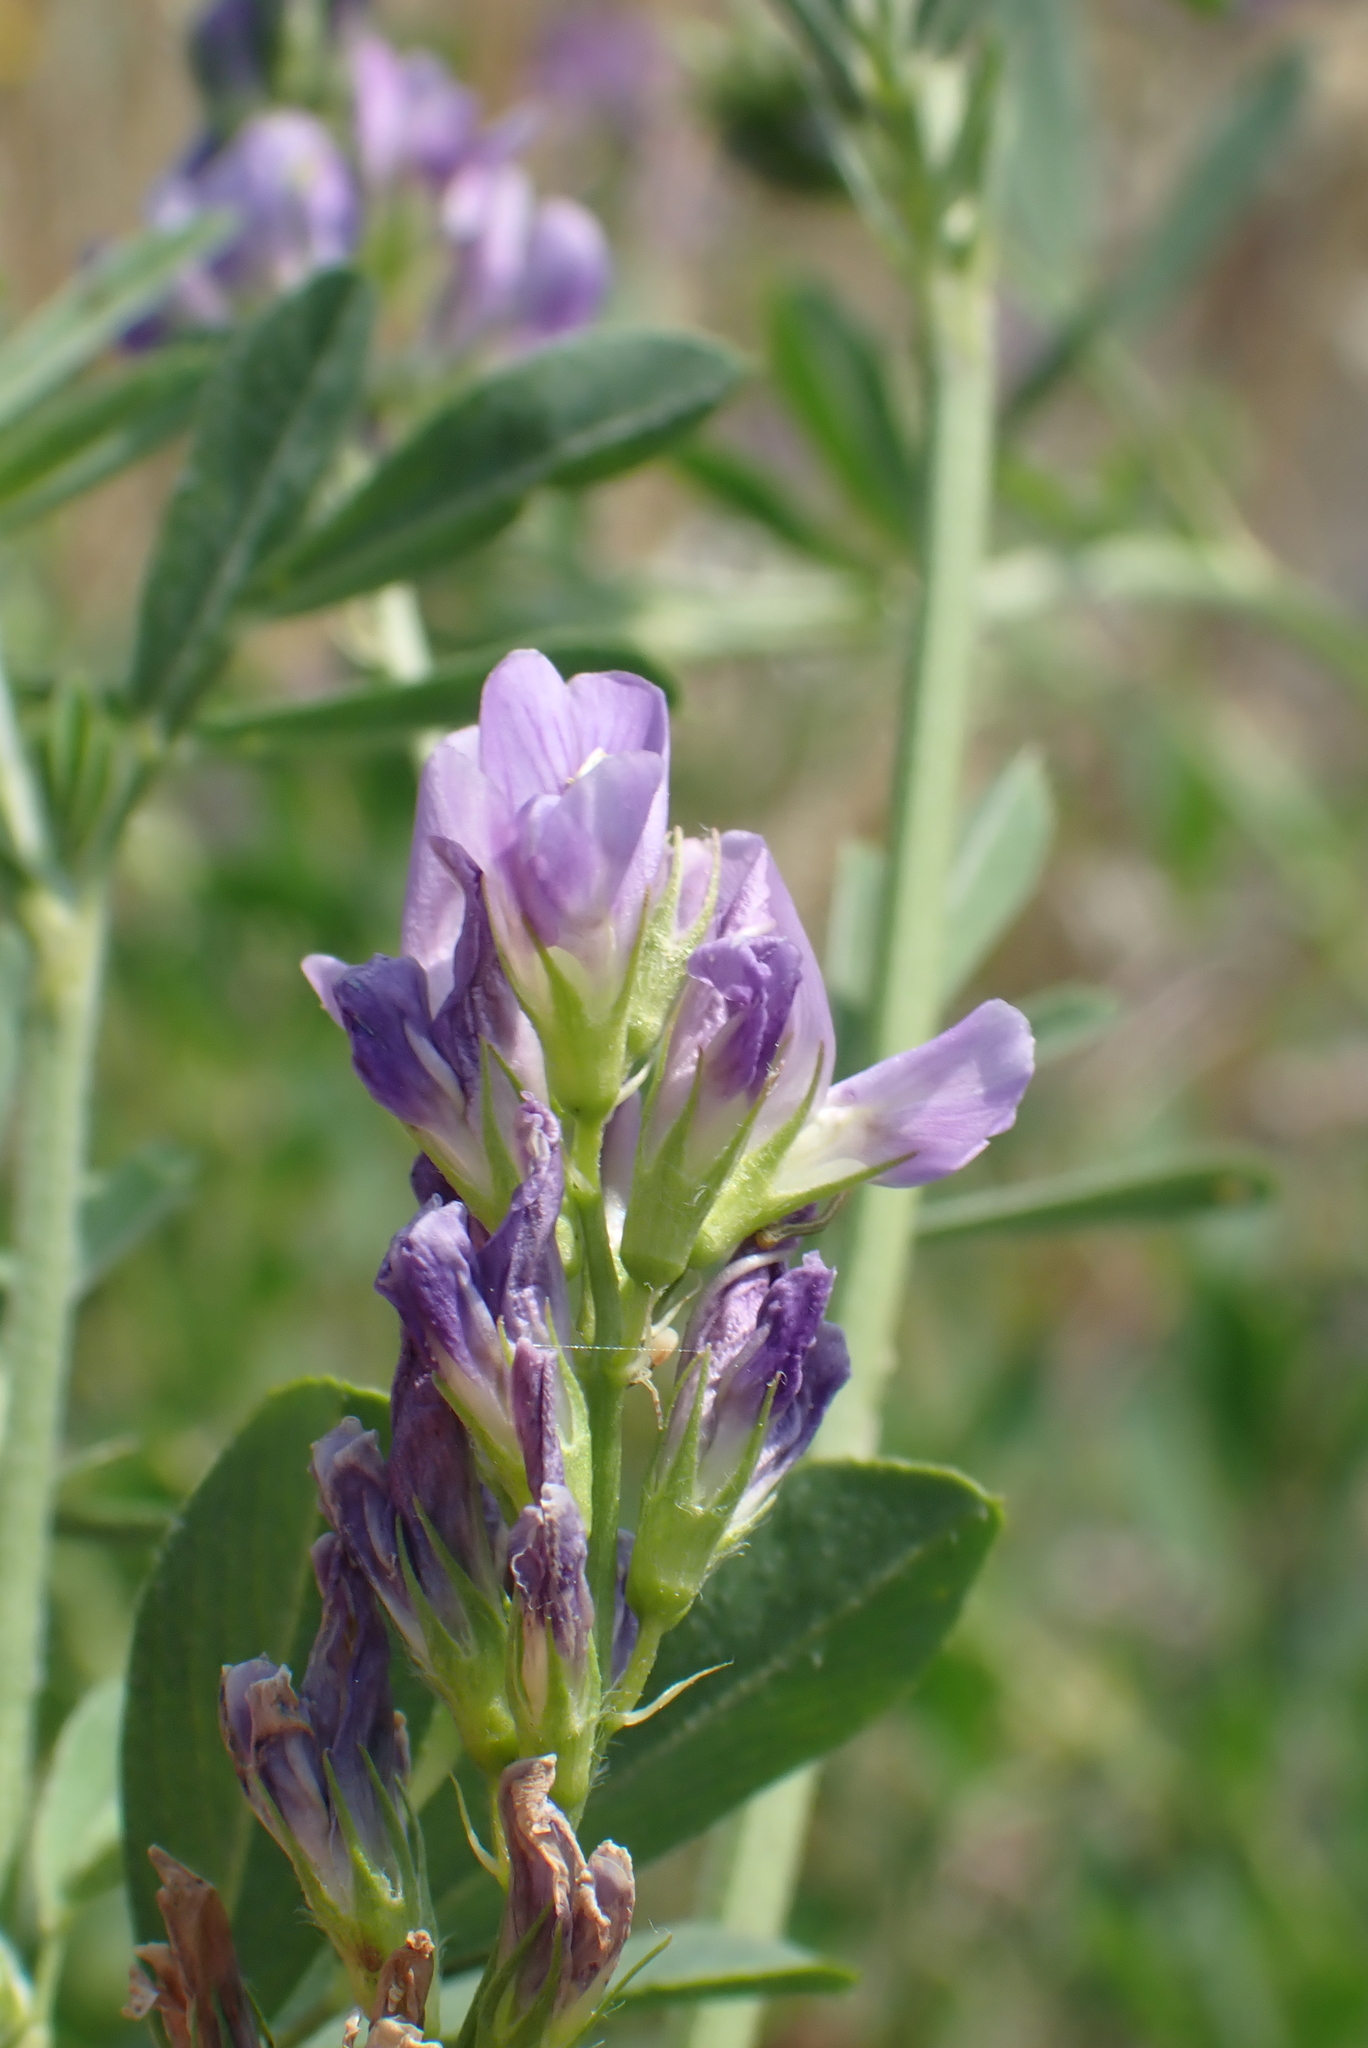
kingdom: Plantae
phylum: Tracheophyta
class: Magnoliopsida
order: Fabales
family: Fabaceae
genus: Medicago
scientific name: Medicago sativa
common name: Alfalfa
